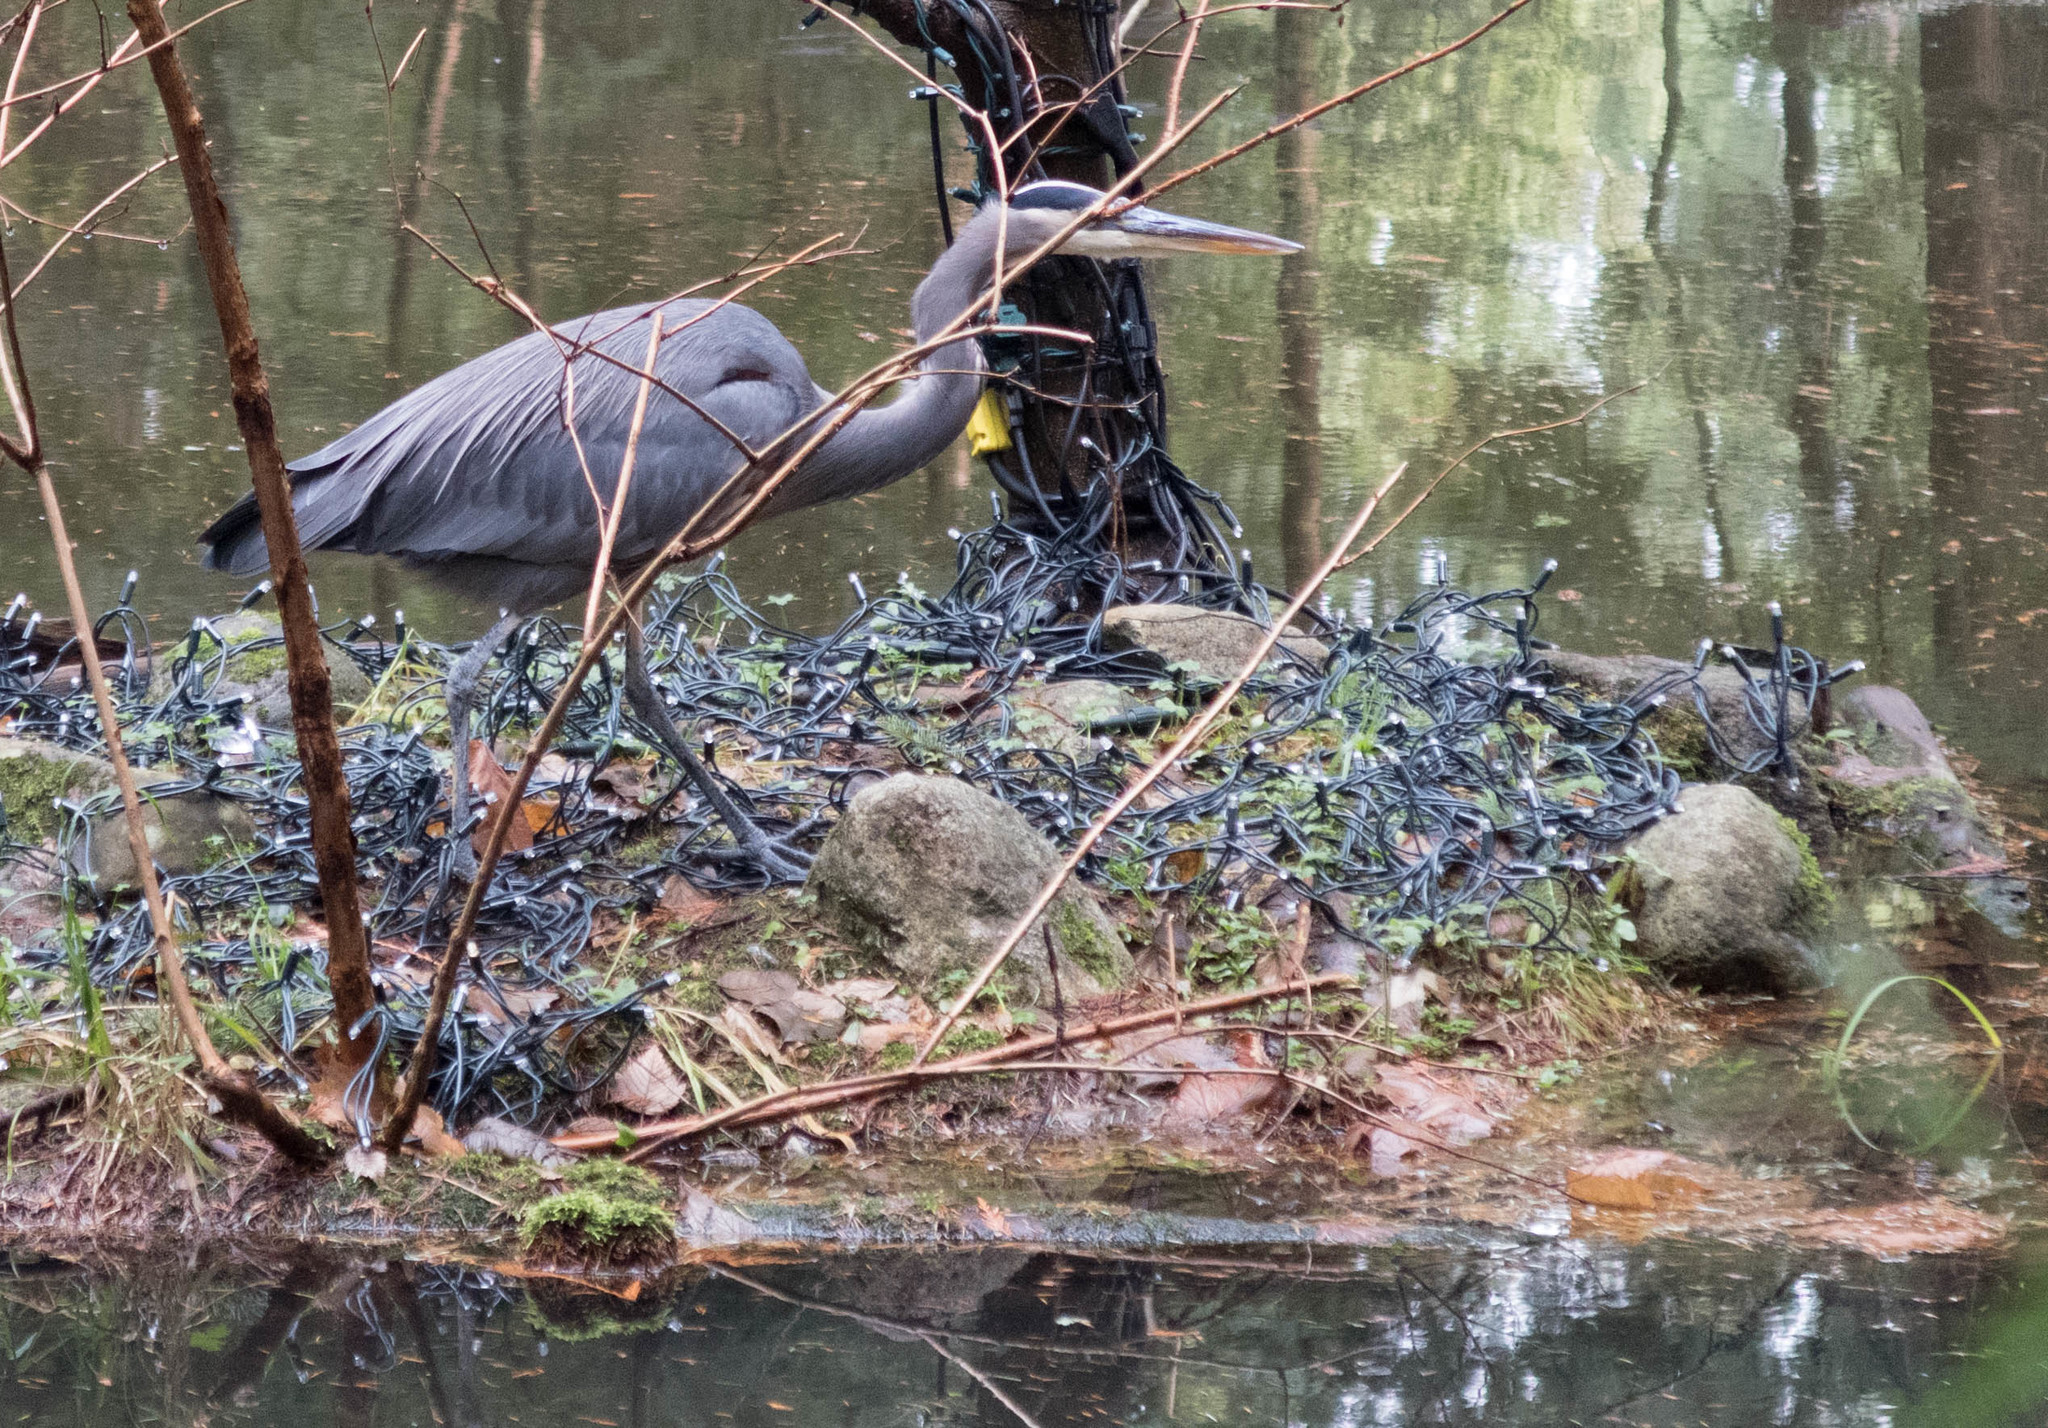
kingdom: Animalia
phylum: Chordata
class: Aves
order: Pelecaniformes
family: Ardeidae
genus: Ardea
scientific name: Ardea herodias
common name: Great blue heron
